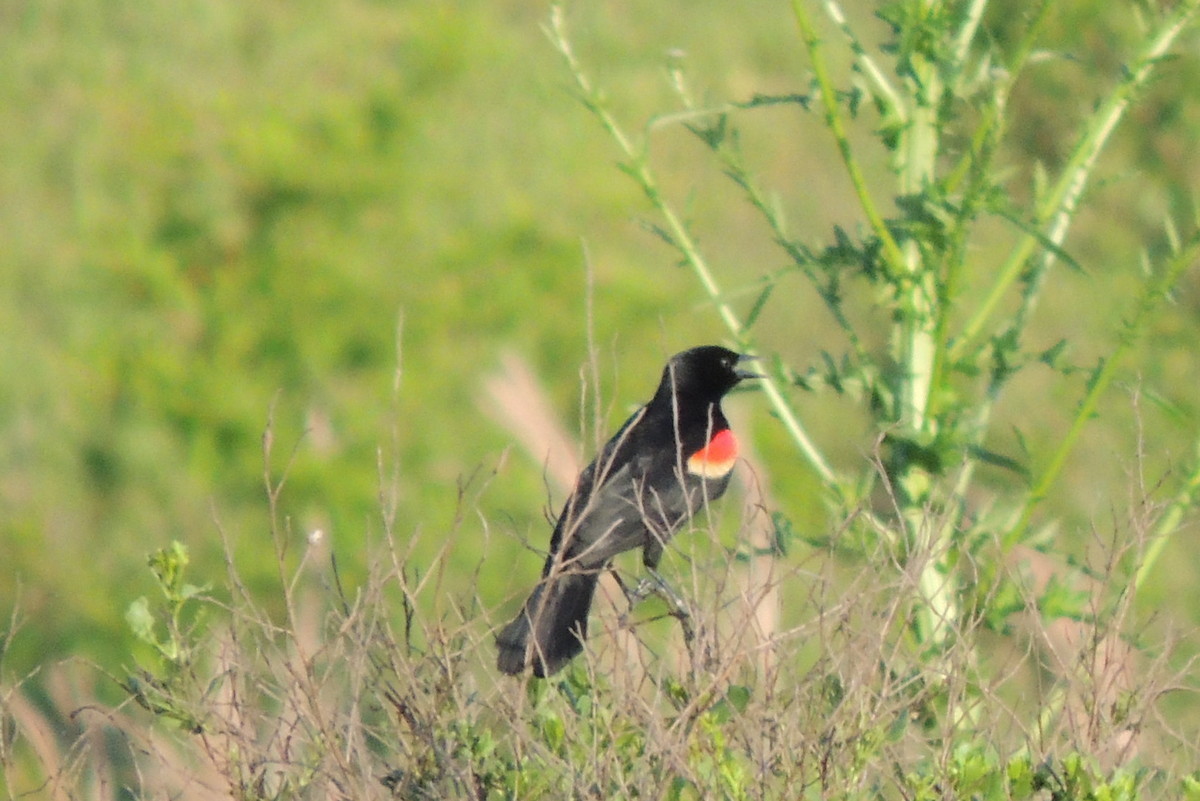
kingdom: Animalia
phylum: Chordata
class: Aves
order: Passeriformes
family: Icteridae
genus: Agelaius
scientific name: Agelaius phoeniceus
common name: Red-winged blackbird
